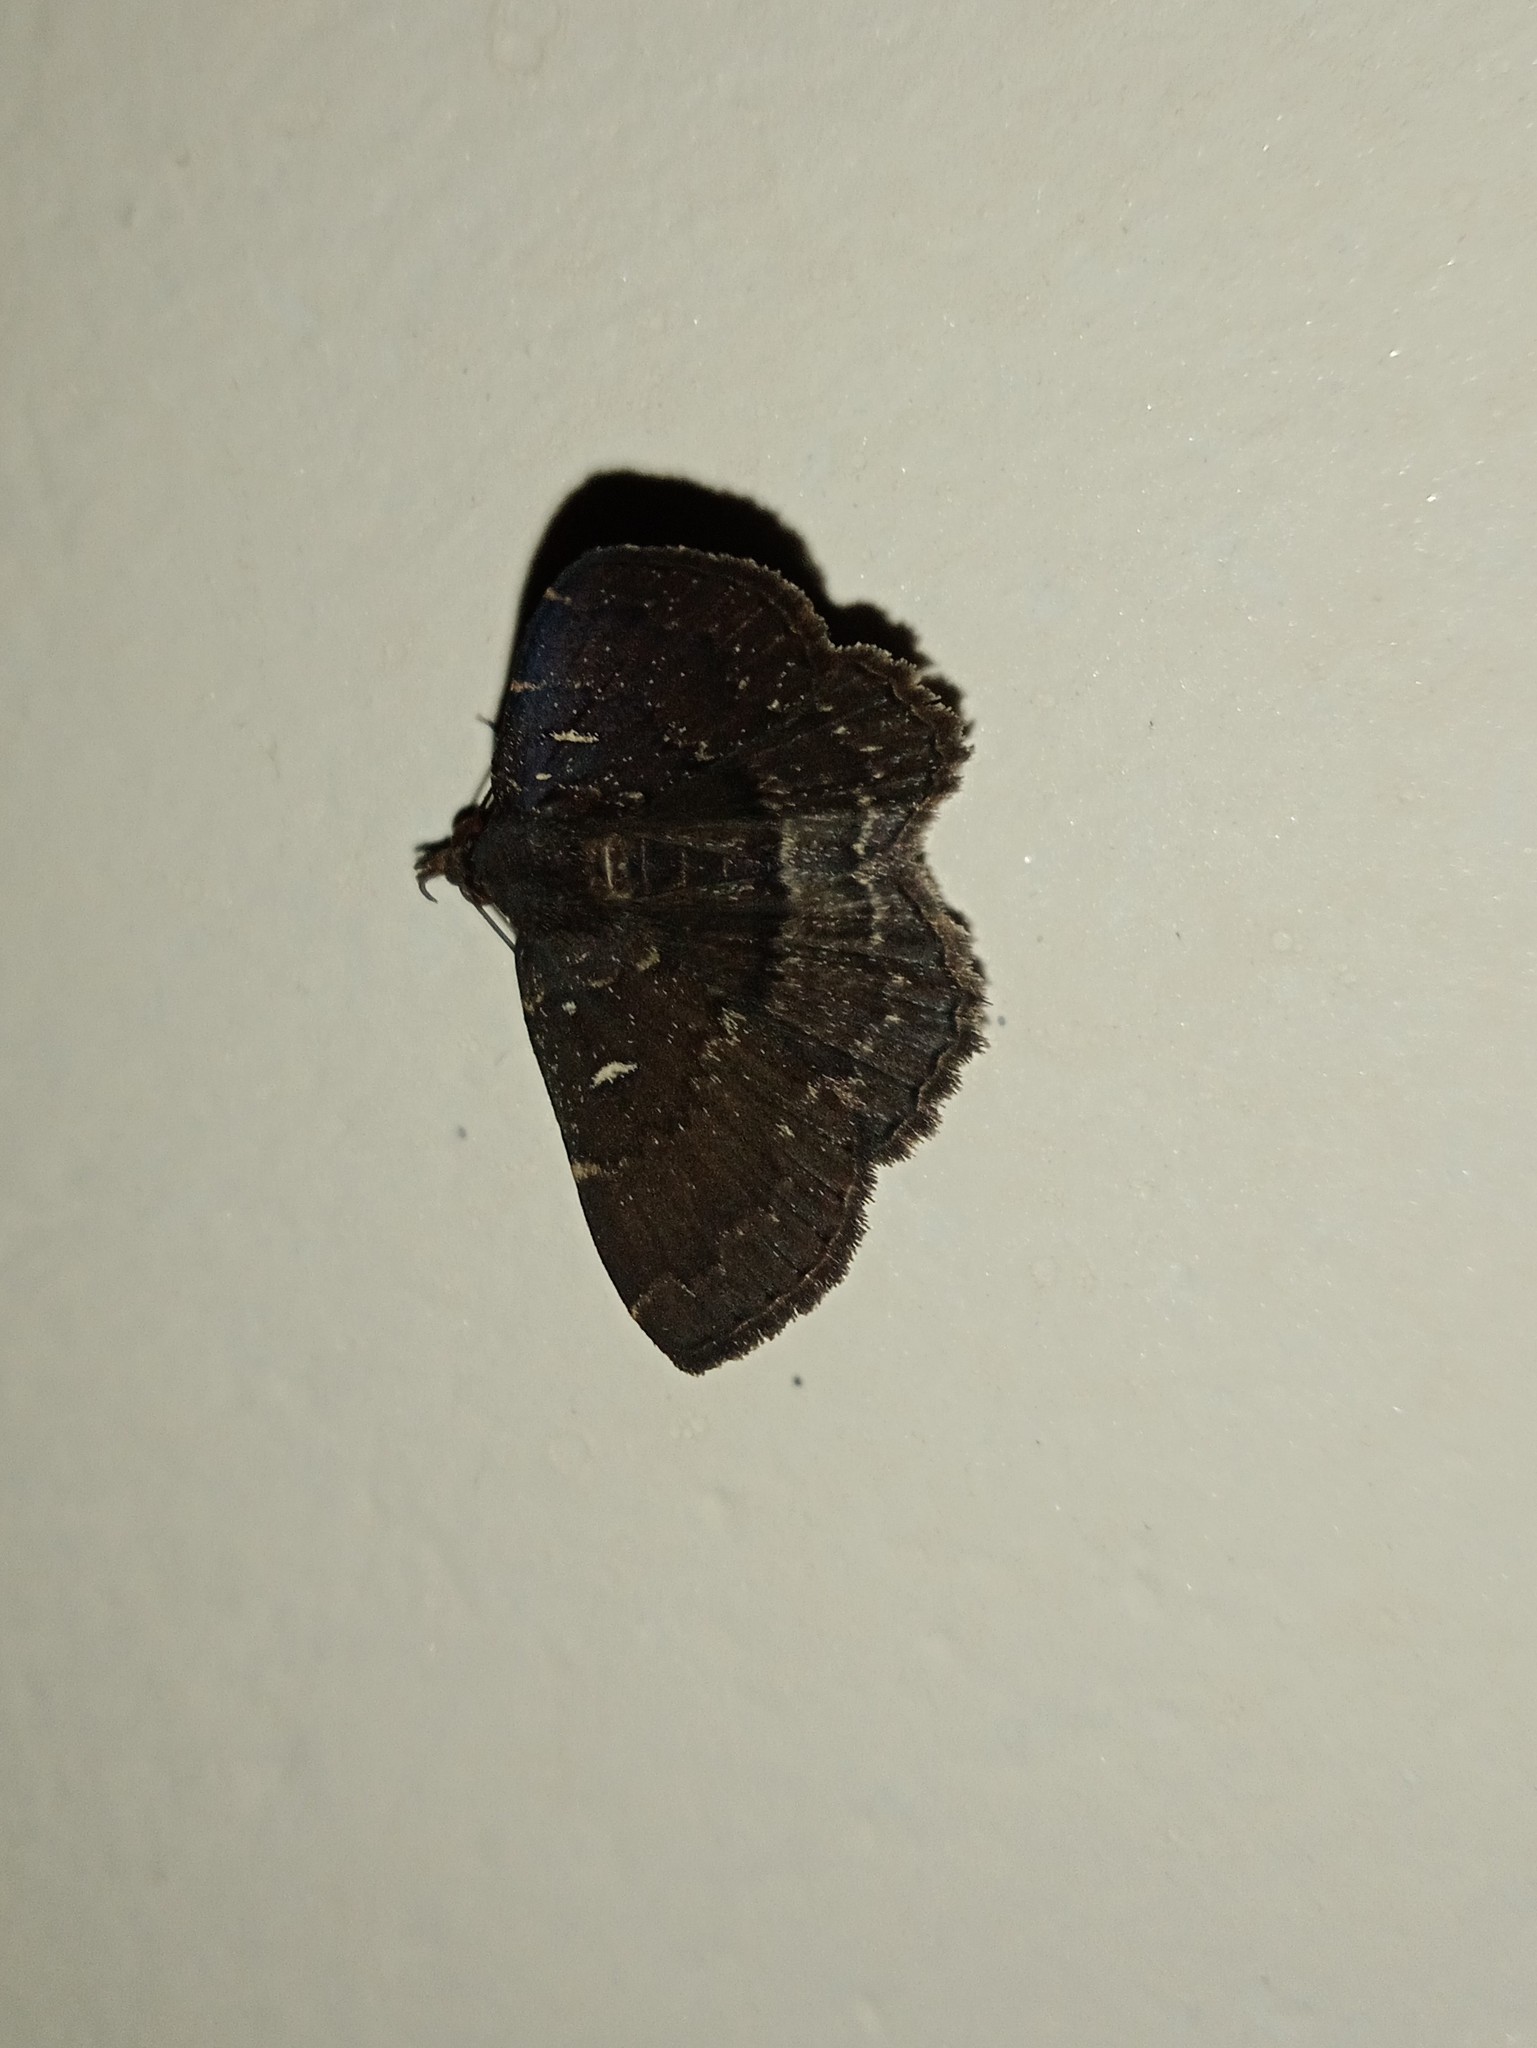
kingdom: Animalia
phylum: Arthropoda
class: Insecta
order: Lepidoptera
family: Erebidae
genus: Bocana
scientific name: Bocana manifestalis
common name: Moth
